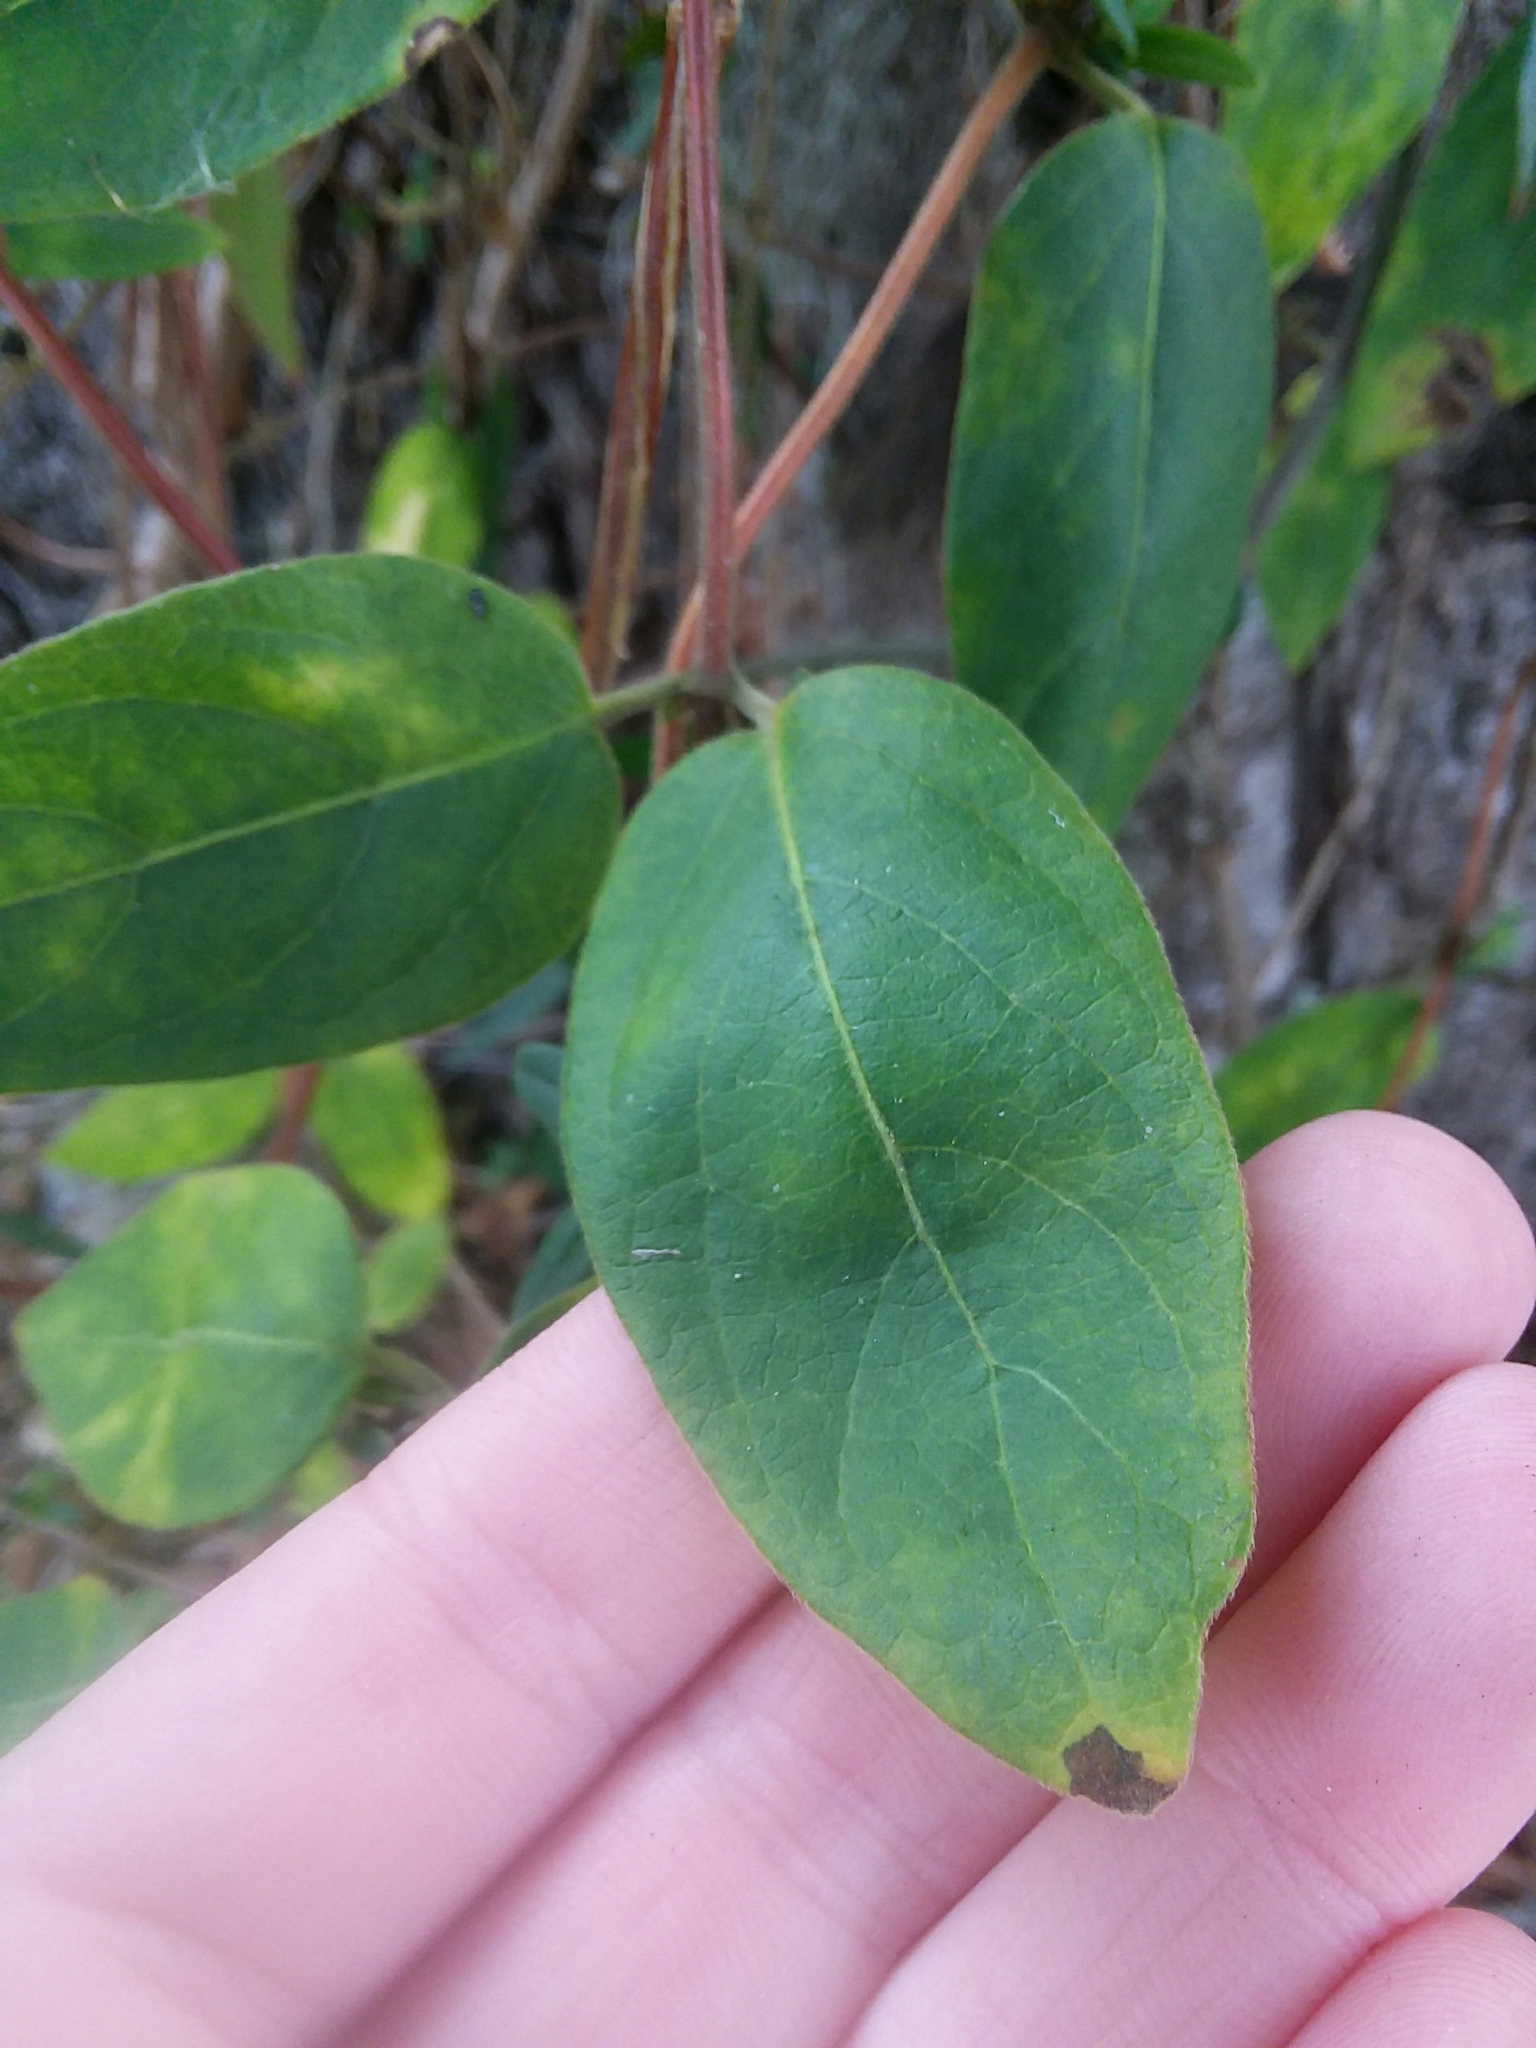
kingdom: Plantae
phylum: Tracheophyta
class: Magnoliopsida
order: Dipsacales
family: Caprifoliaceae
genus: Lonicera
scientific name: Lonicera japonica
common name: Japanese honeysuckle
